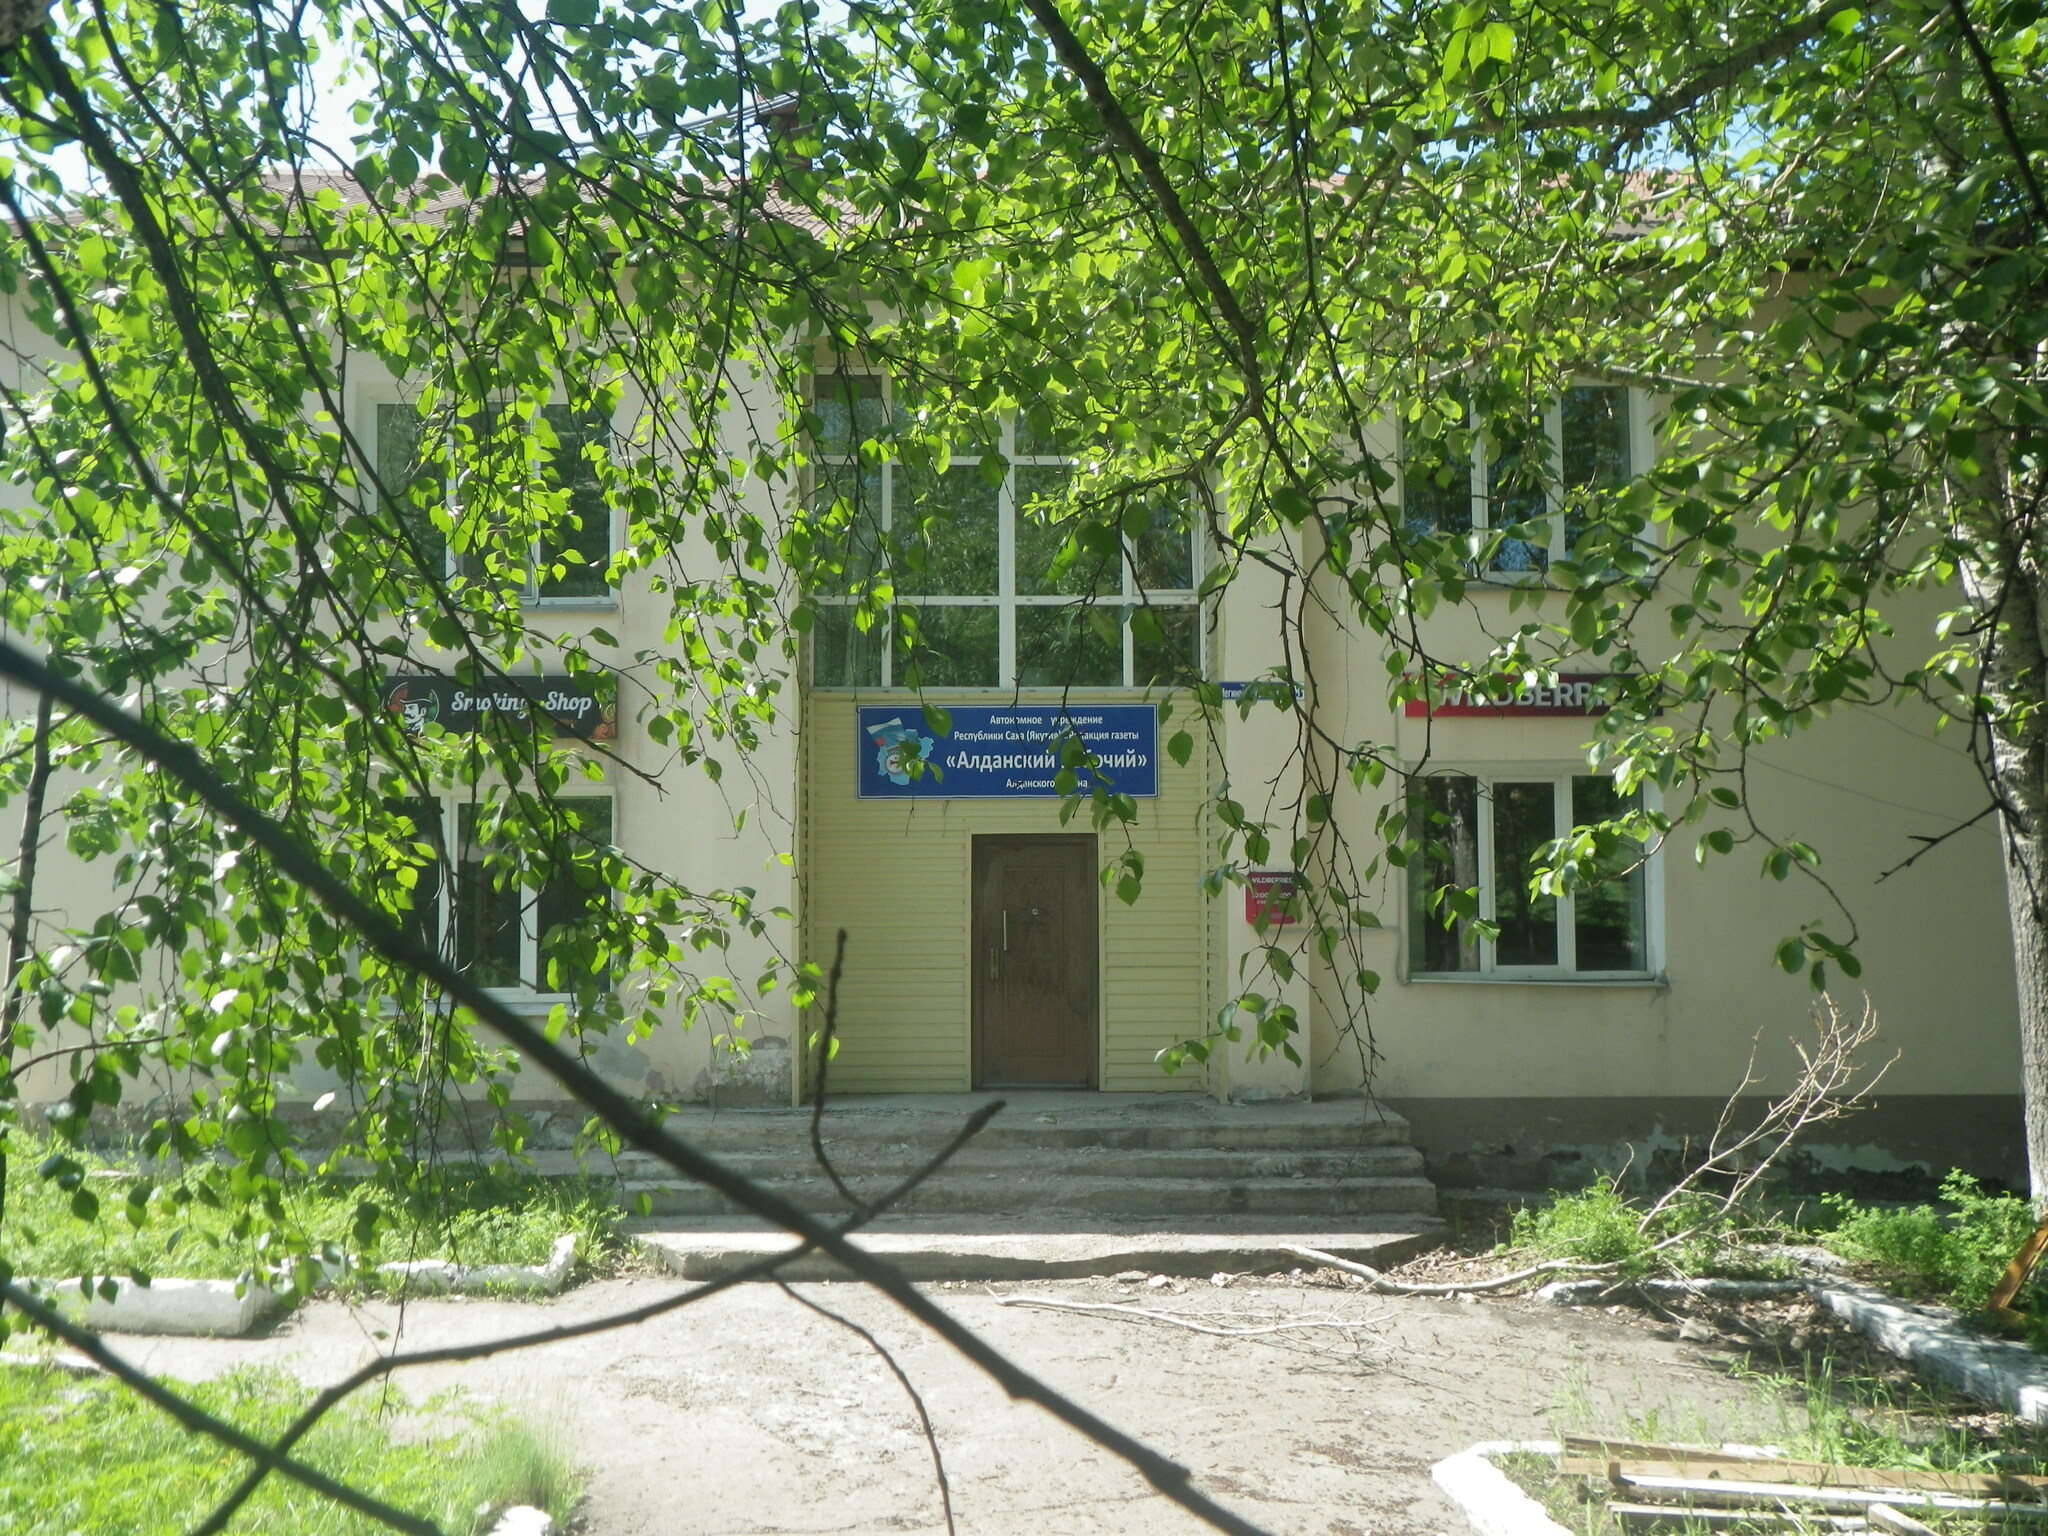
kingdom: Plantae
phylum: Tracheophyta
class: Magnoliopsida
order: Malpighiales
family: Salicaceae
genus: Populus
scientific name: Populus suaveolens
